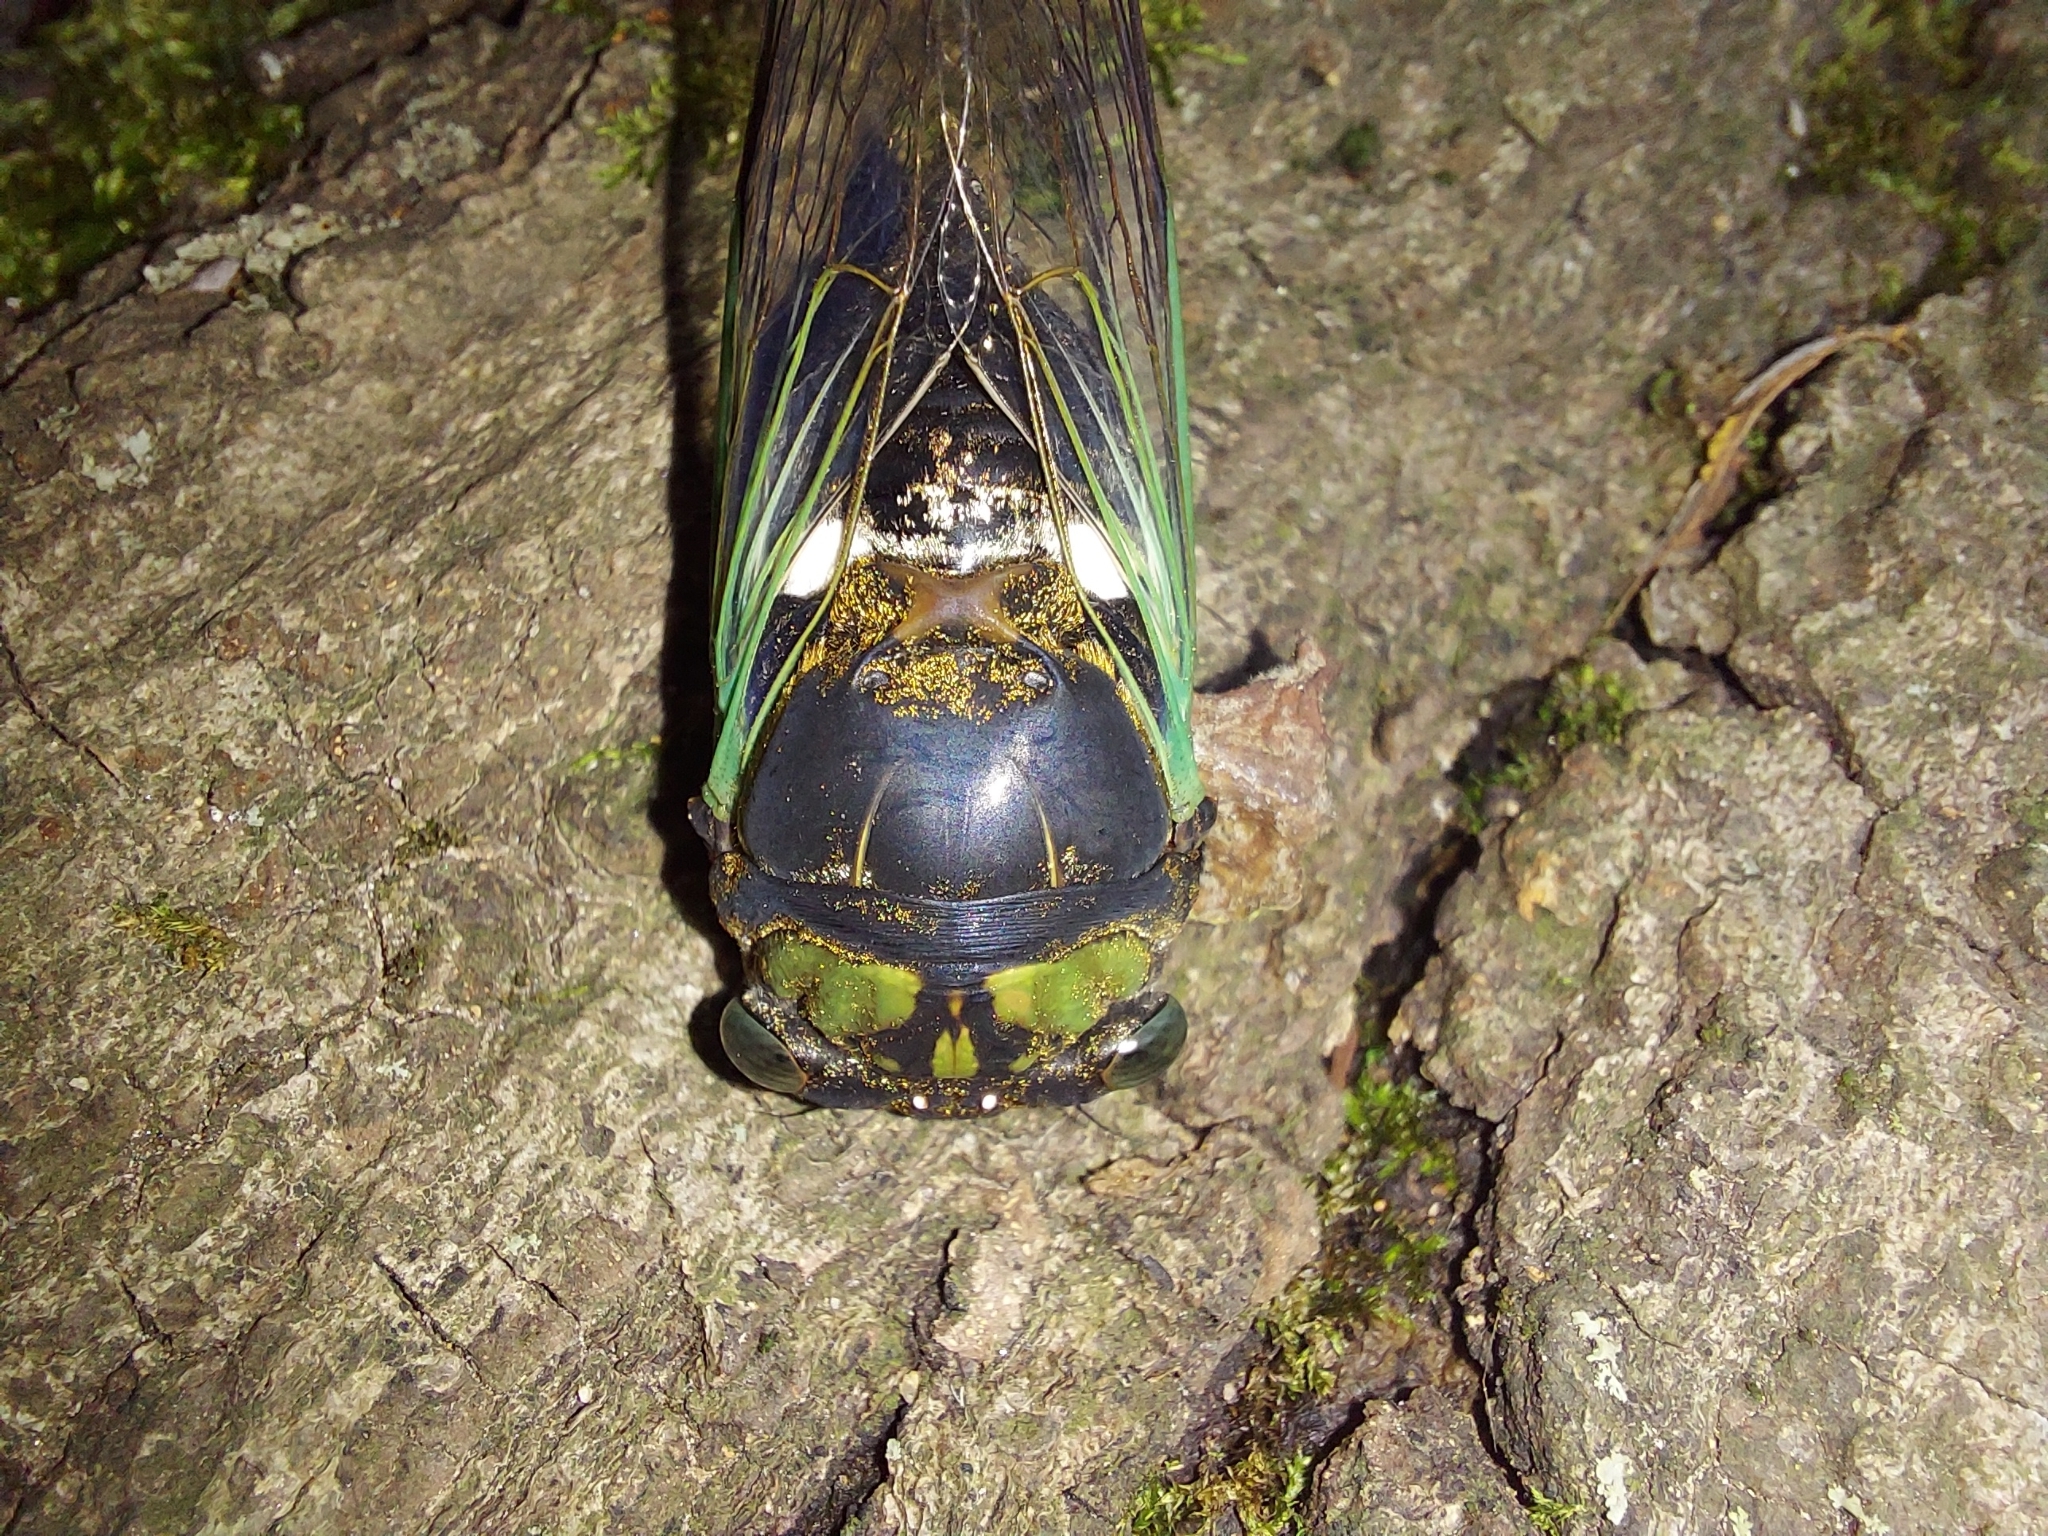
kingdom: Animalia
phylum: Arthropoda
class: Insecta
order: Hemiptera
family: Cicadidae
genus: Neotibicen
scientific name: Neotibicen tibicen
